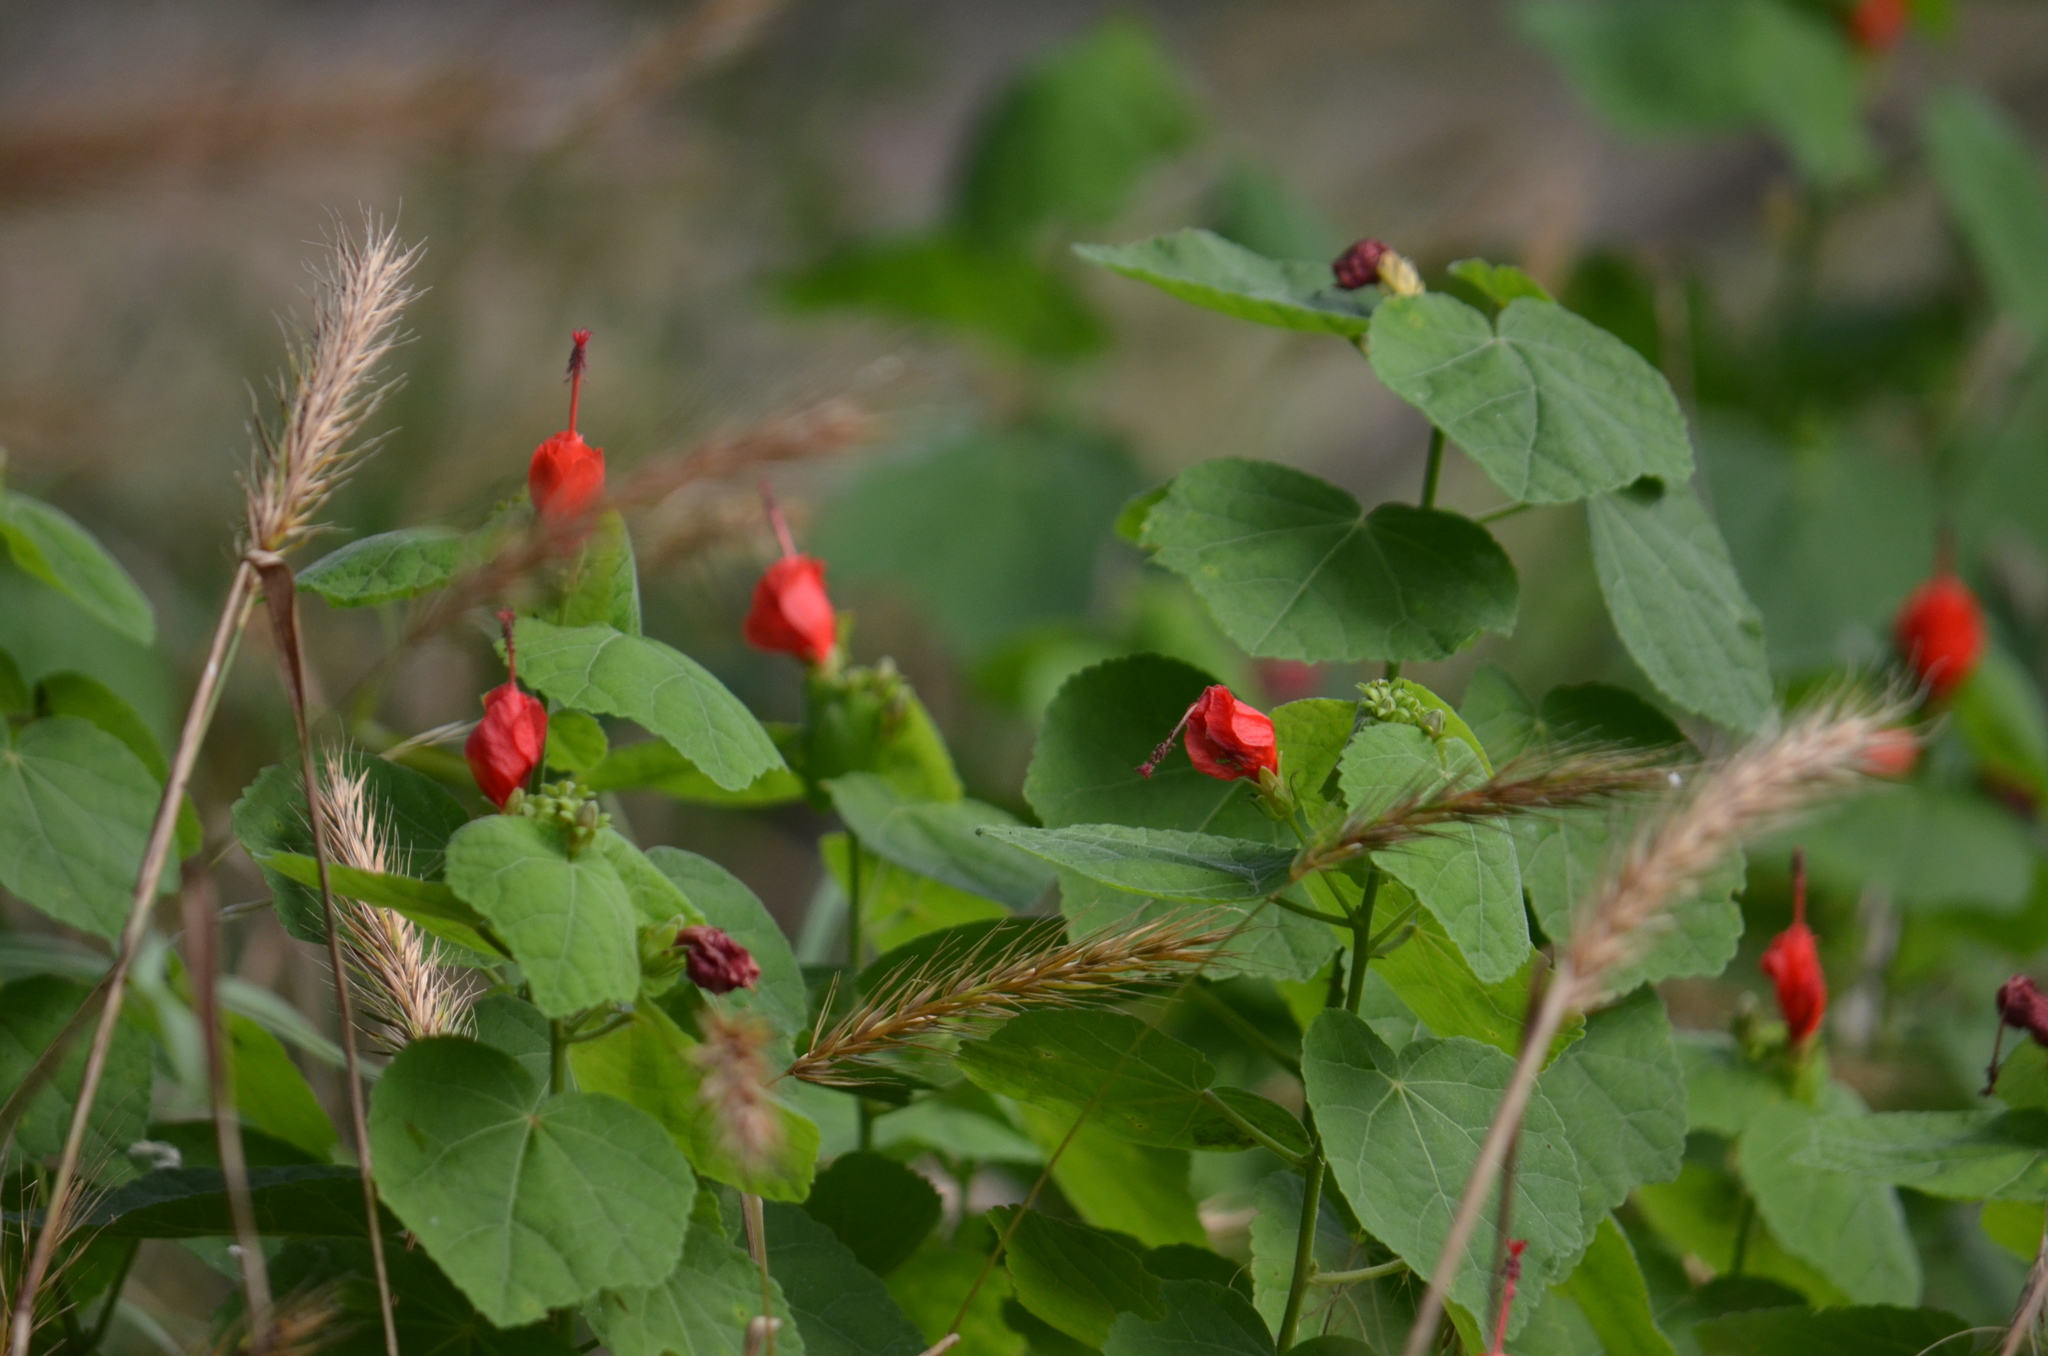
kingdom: Plantae
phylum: Tracheophyta
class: Magnoliopsida
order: Malvales
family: Malvaceae
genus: Malvaviscus
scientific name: Malvaviscus arboreus
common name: Wax mallow
